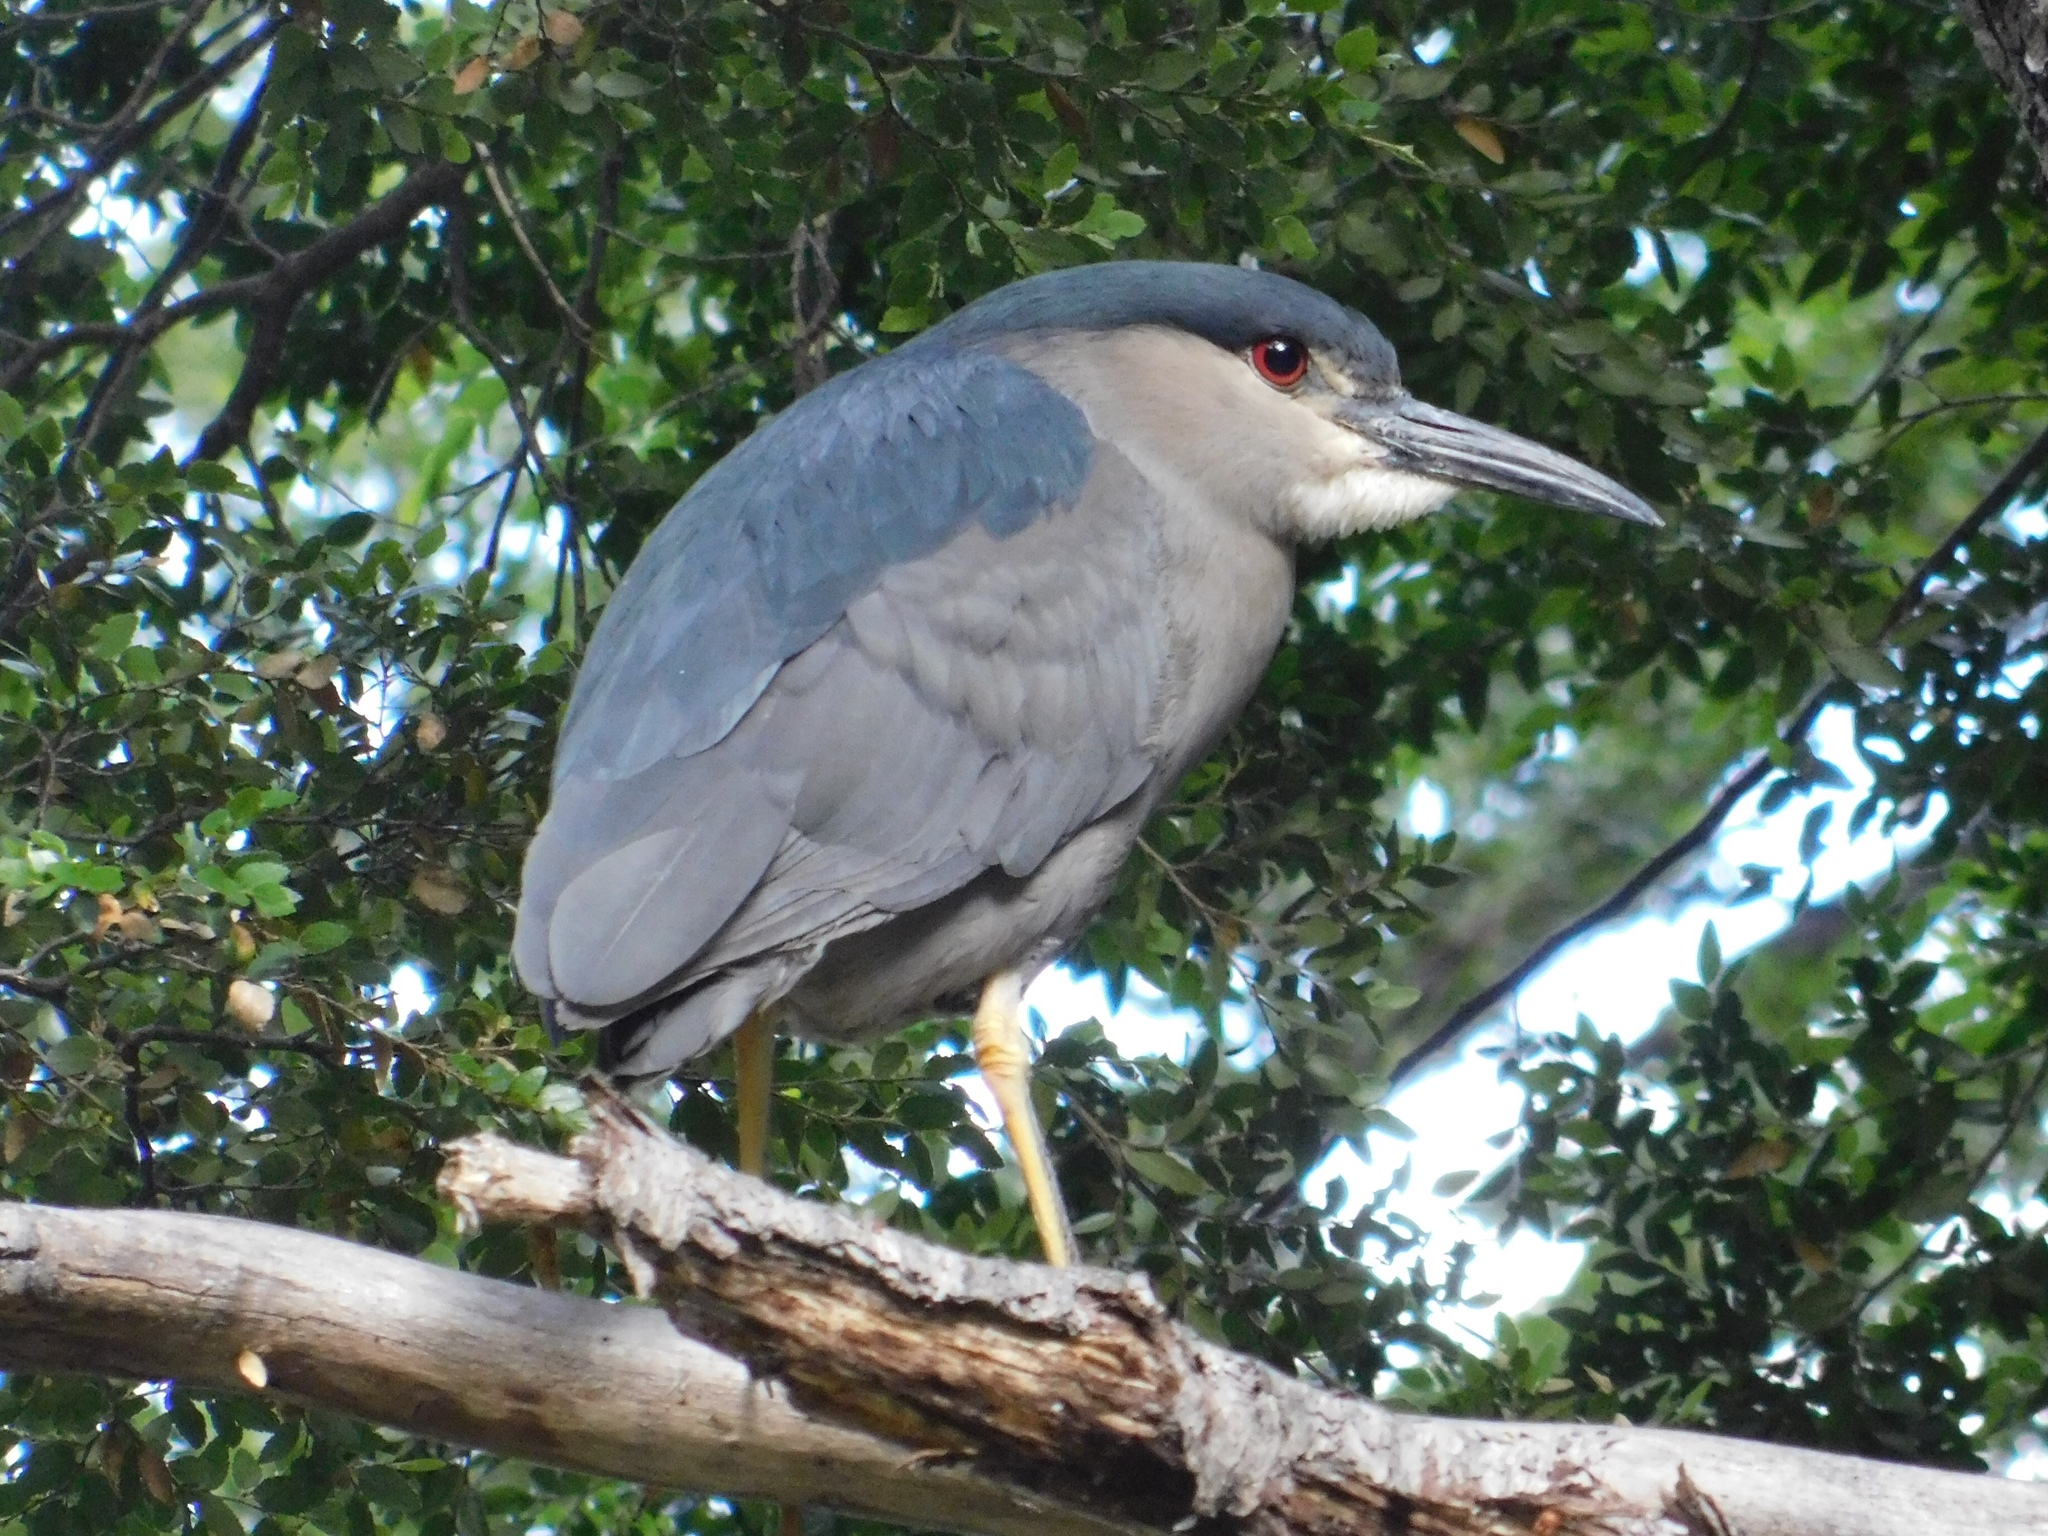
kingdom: Animalia
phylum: Chordata
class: Aves
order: Pelecaniformes
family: Ardeidae
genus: Nycticorax
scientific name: Nycticorax nycticorax
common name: Black-crowned night heron
